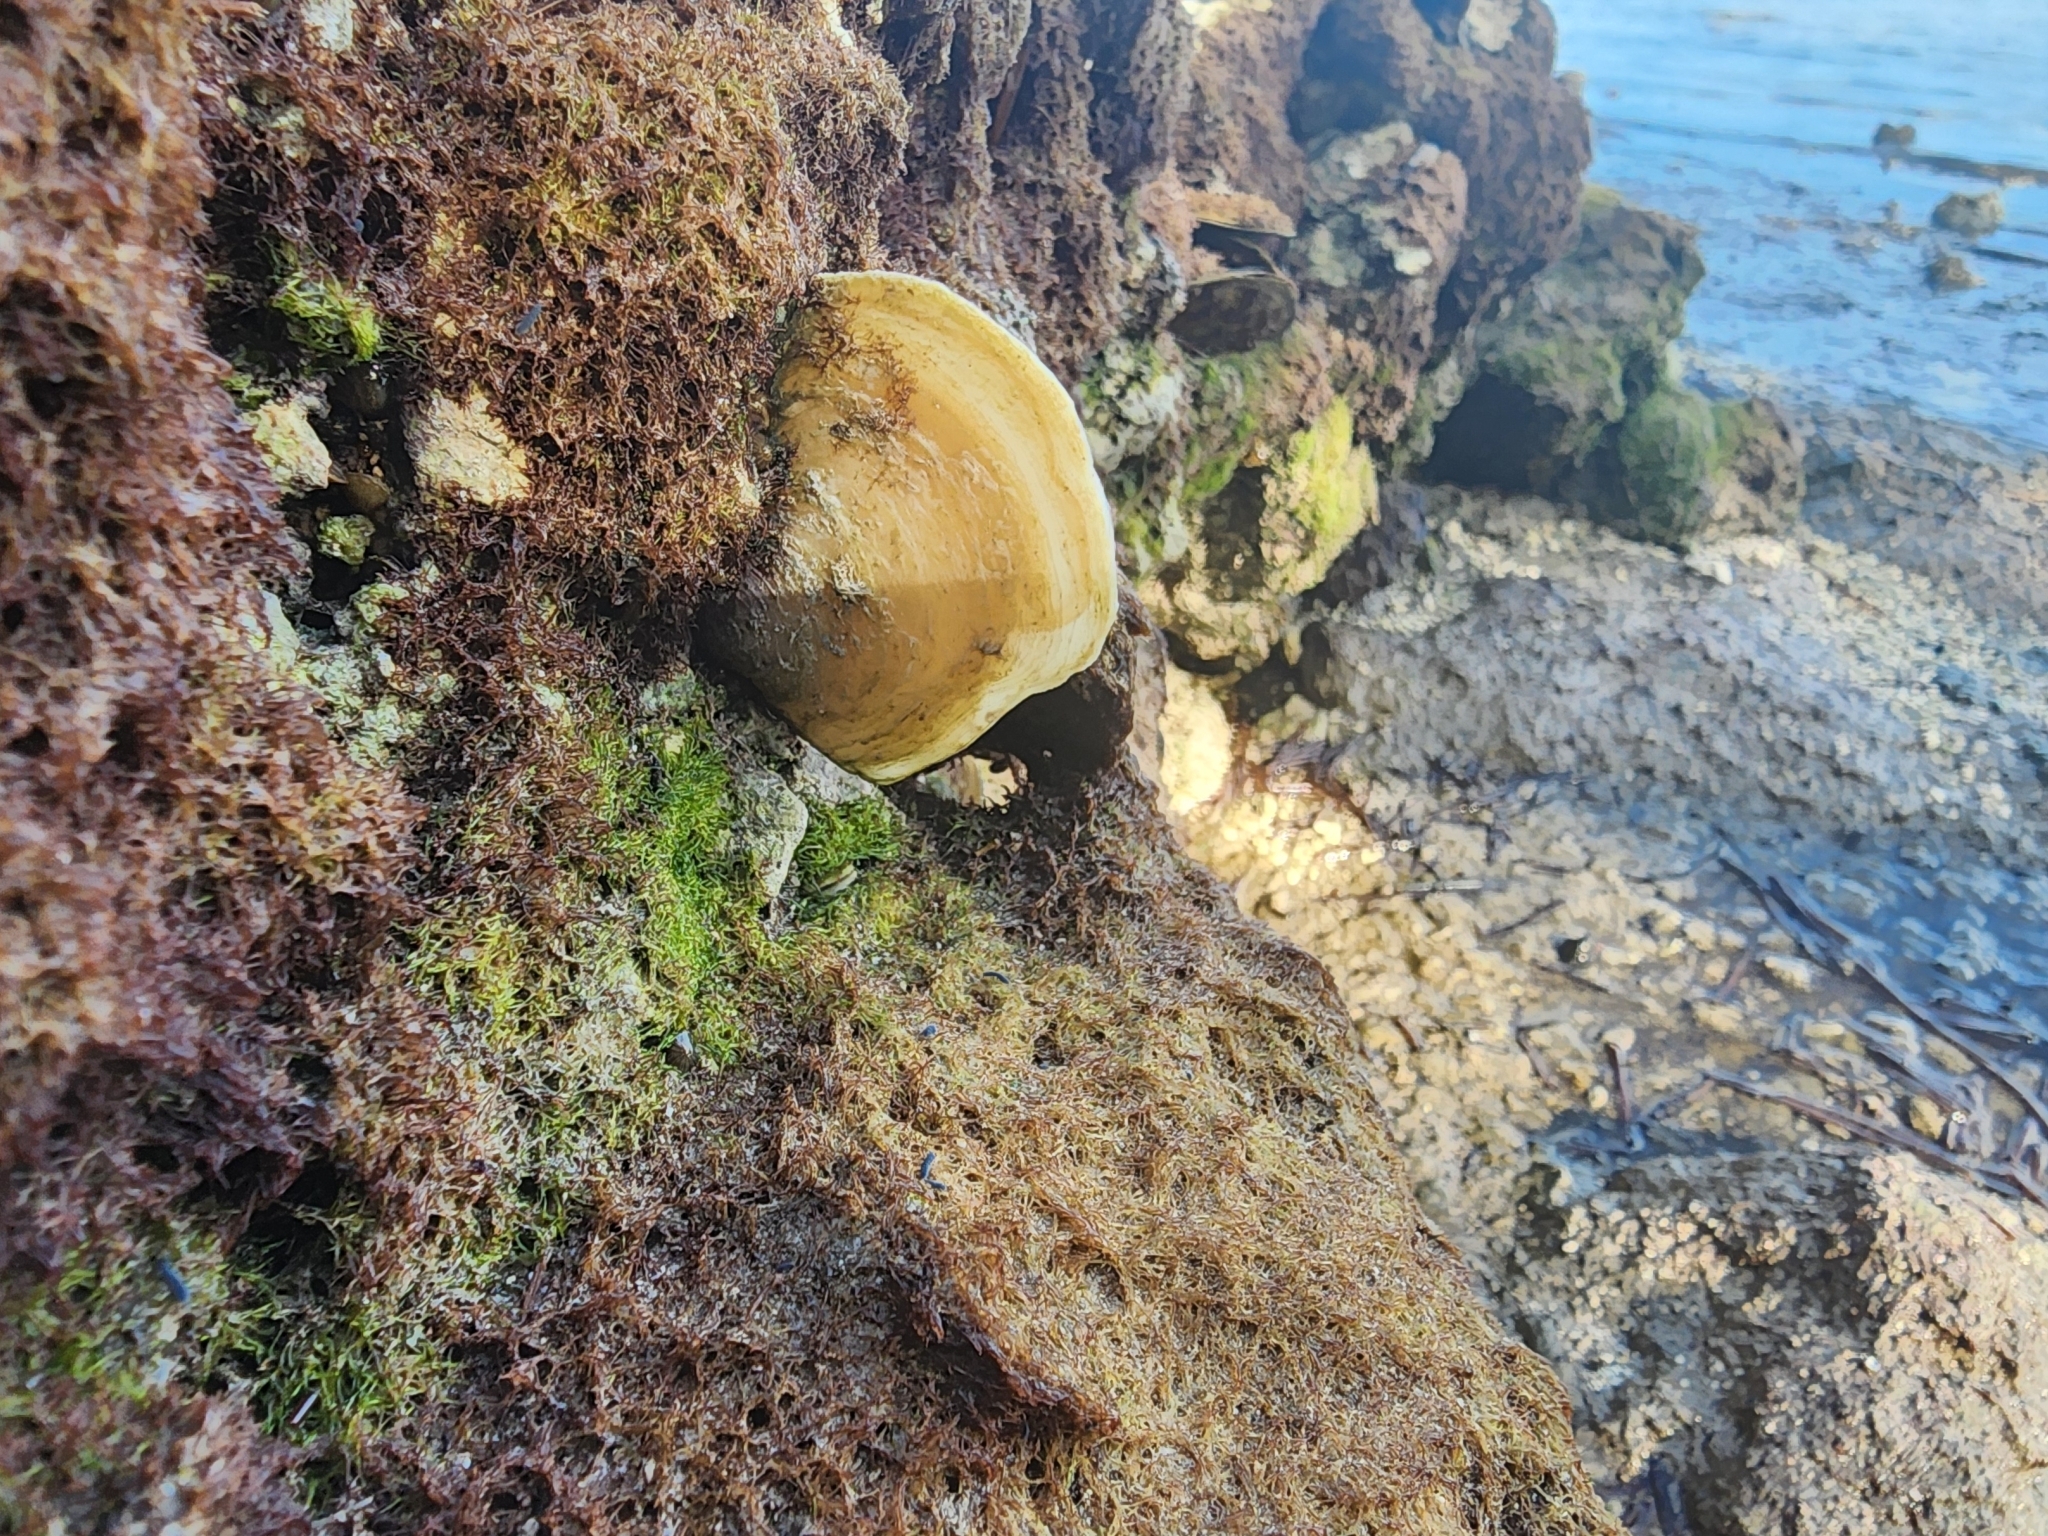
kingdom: Animalia
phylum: Mollusca
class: Bivalvia
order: Ostreida
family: Isognomonidae
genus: Isognomon
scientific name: Isognomon alatus
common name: Flat tree-oyster
